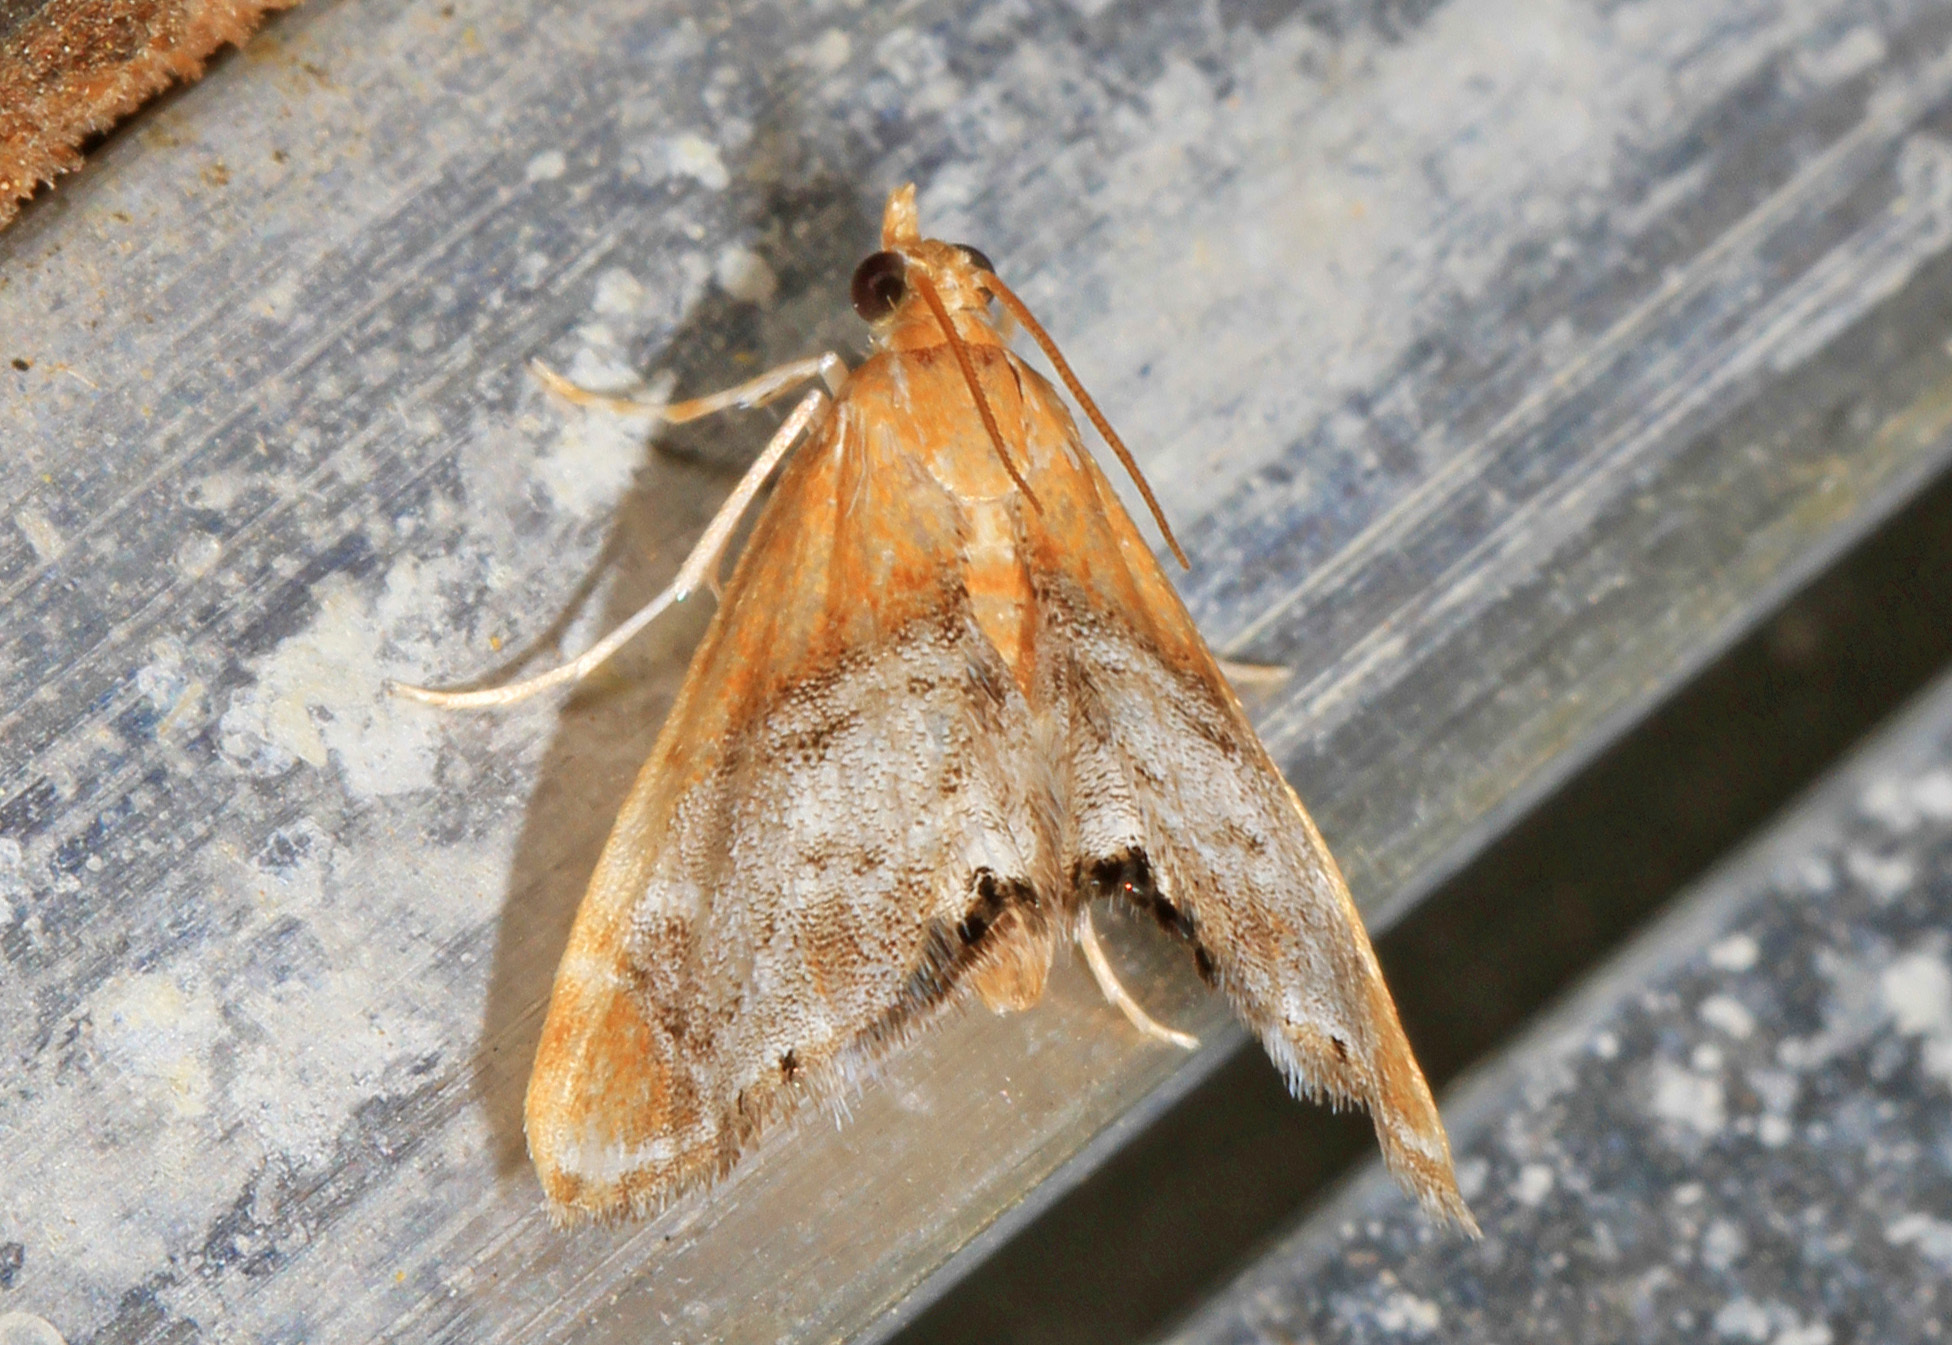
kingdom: Animalia
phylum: Arthropoda
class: Insecta
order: Lepidoptera
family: Crambidae
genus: Chalcoela
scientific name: Chalcoela iphitalis
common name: Sooty-winged chalcoela moth
